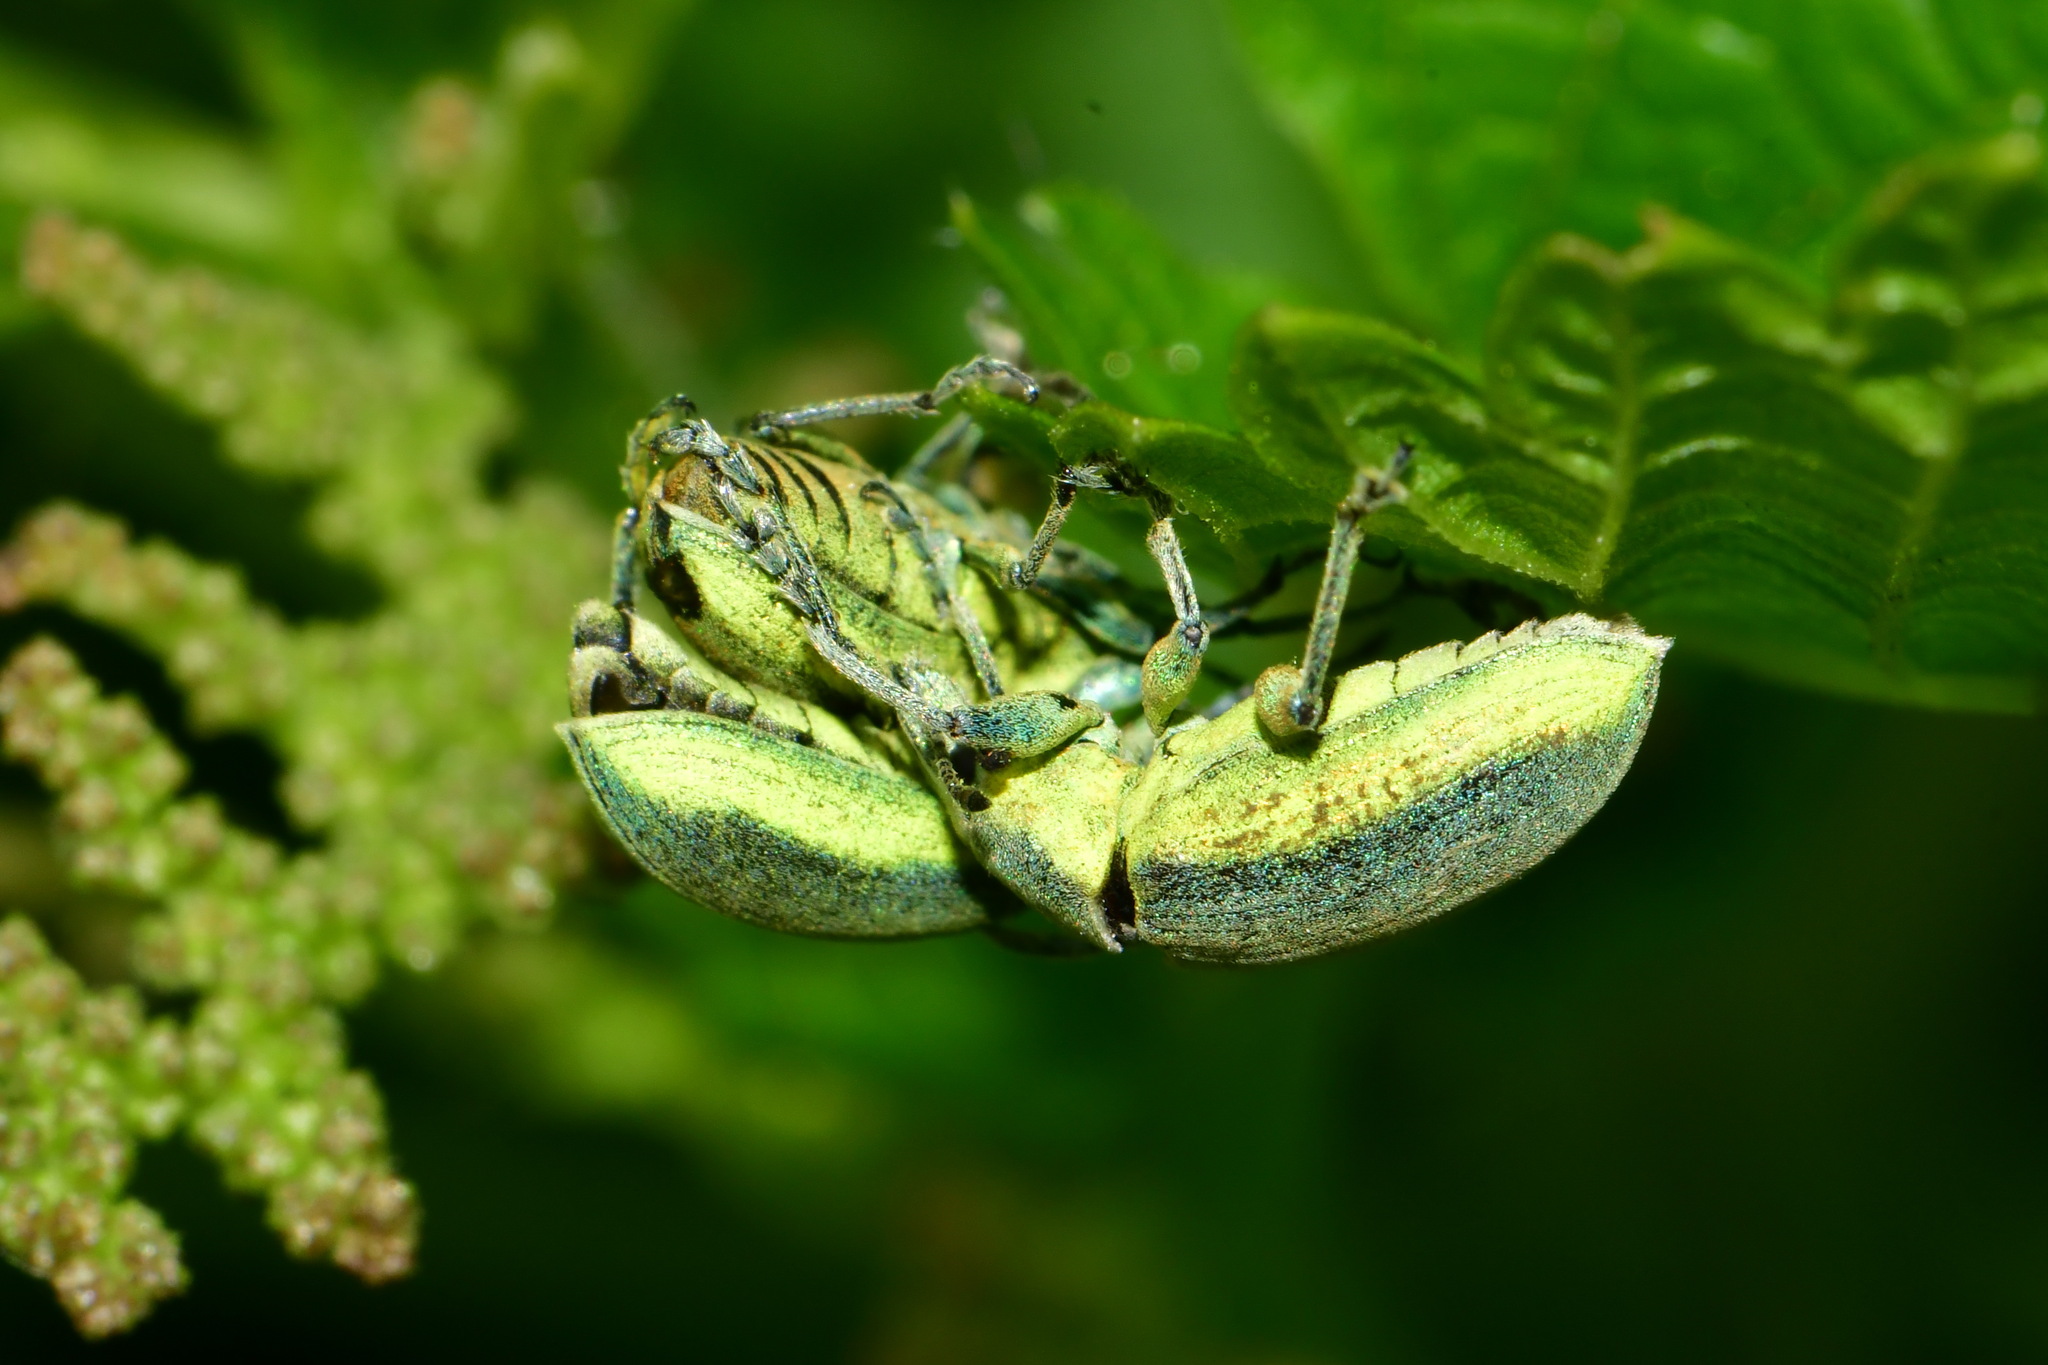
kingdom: Animalia
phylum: Arthropoda
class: Insecta
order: Coleoptera
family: Curculionidae
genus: Chlorophanus
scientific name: Chlorophanus viridis
